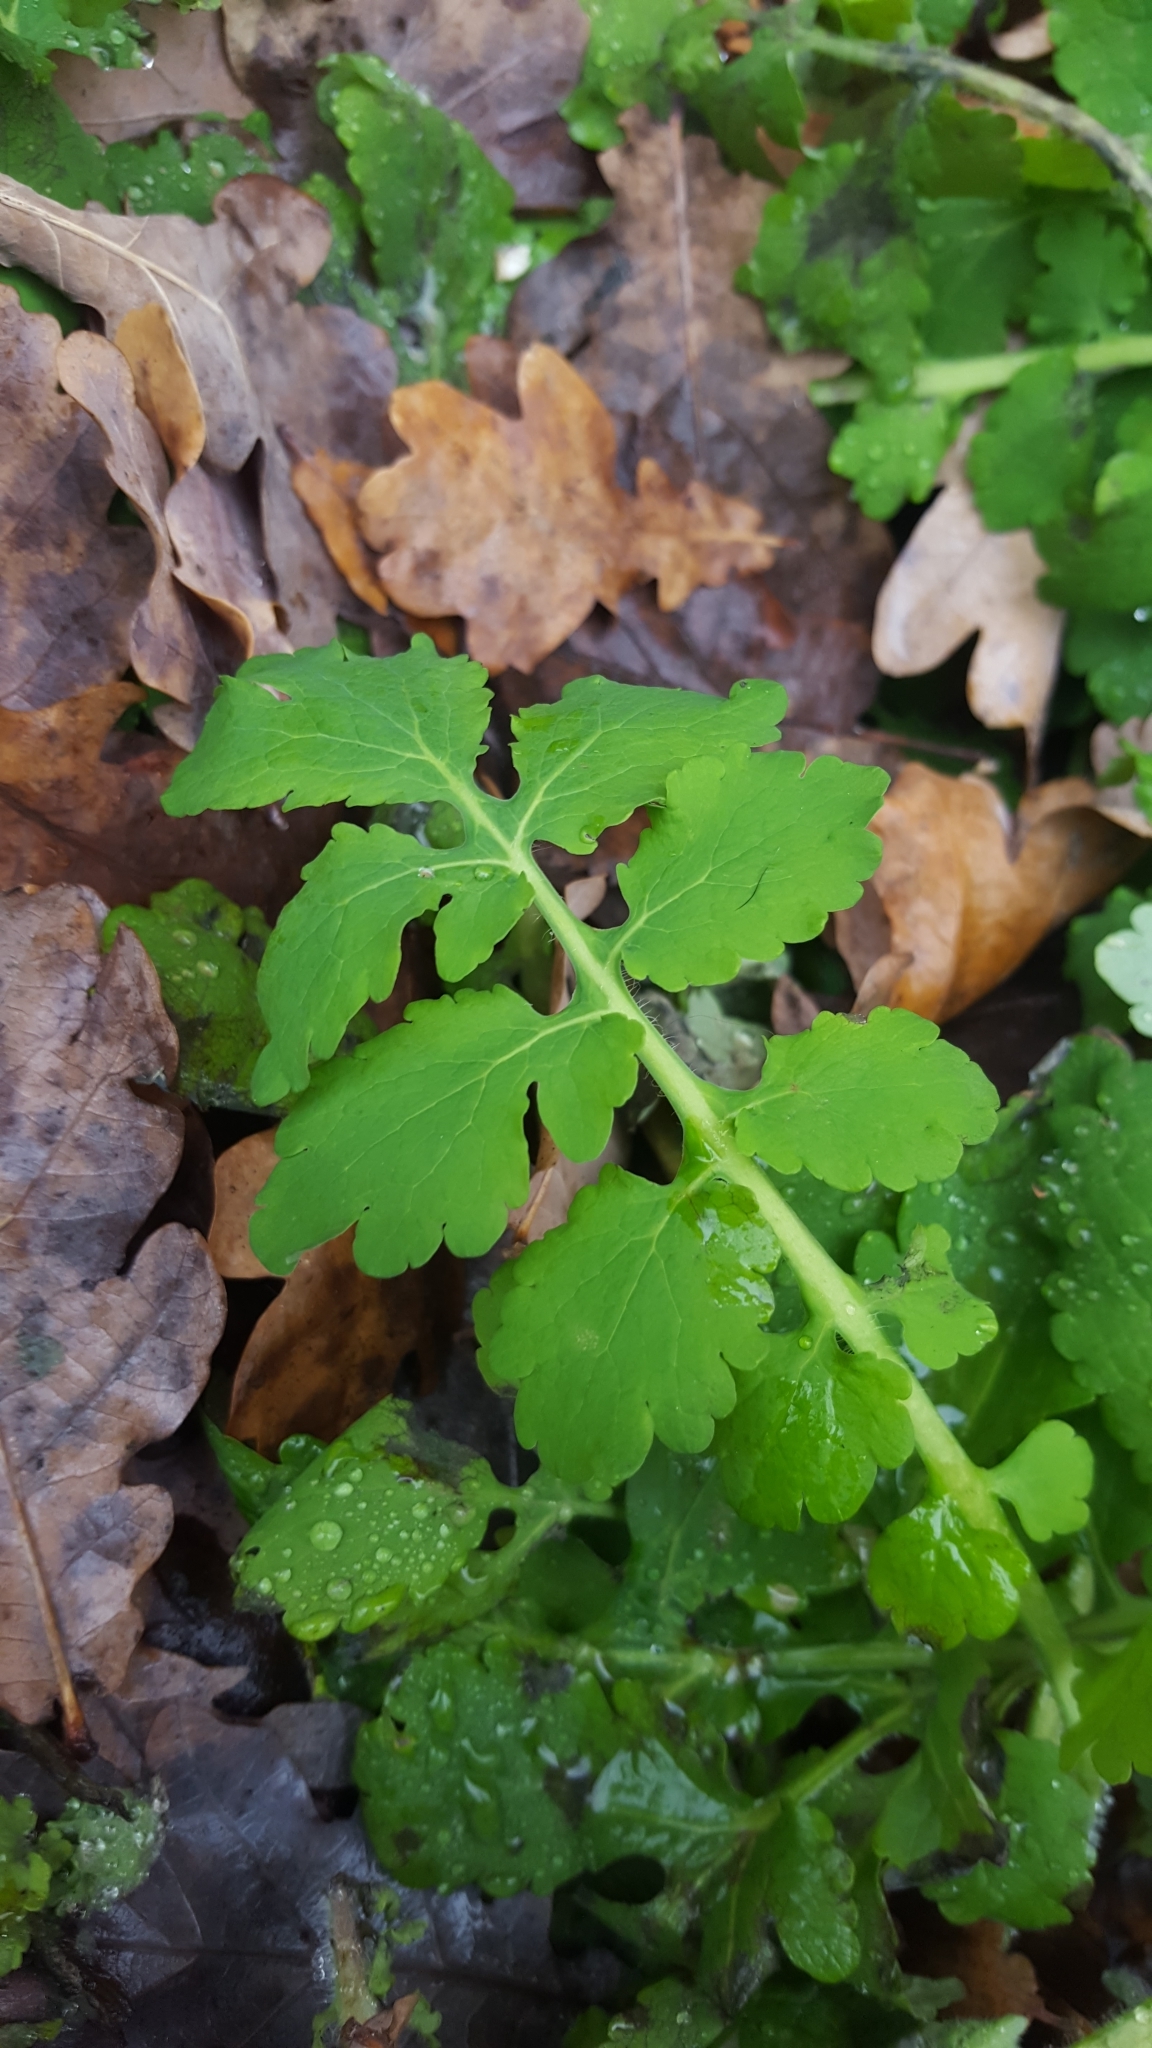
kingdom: Plantae
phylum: Tracheophyta
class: Magnoliopsida
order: Ranunculales
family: Papaveraceae
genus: Chelidonium
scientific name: Chelidonium majus
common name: Greater celandine
